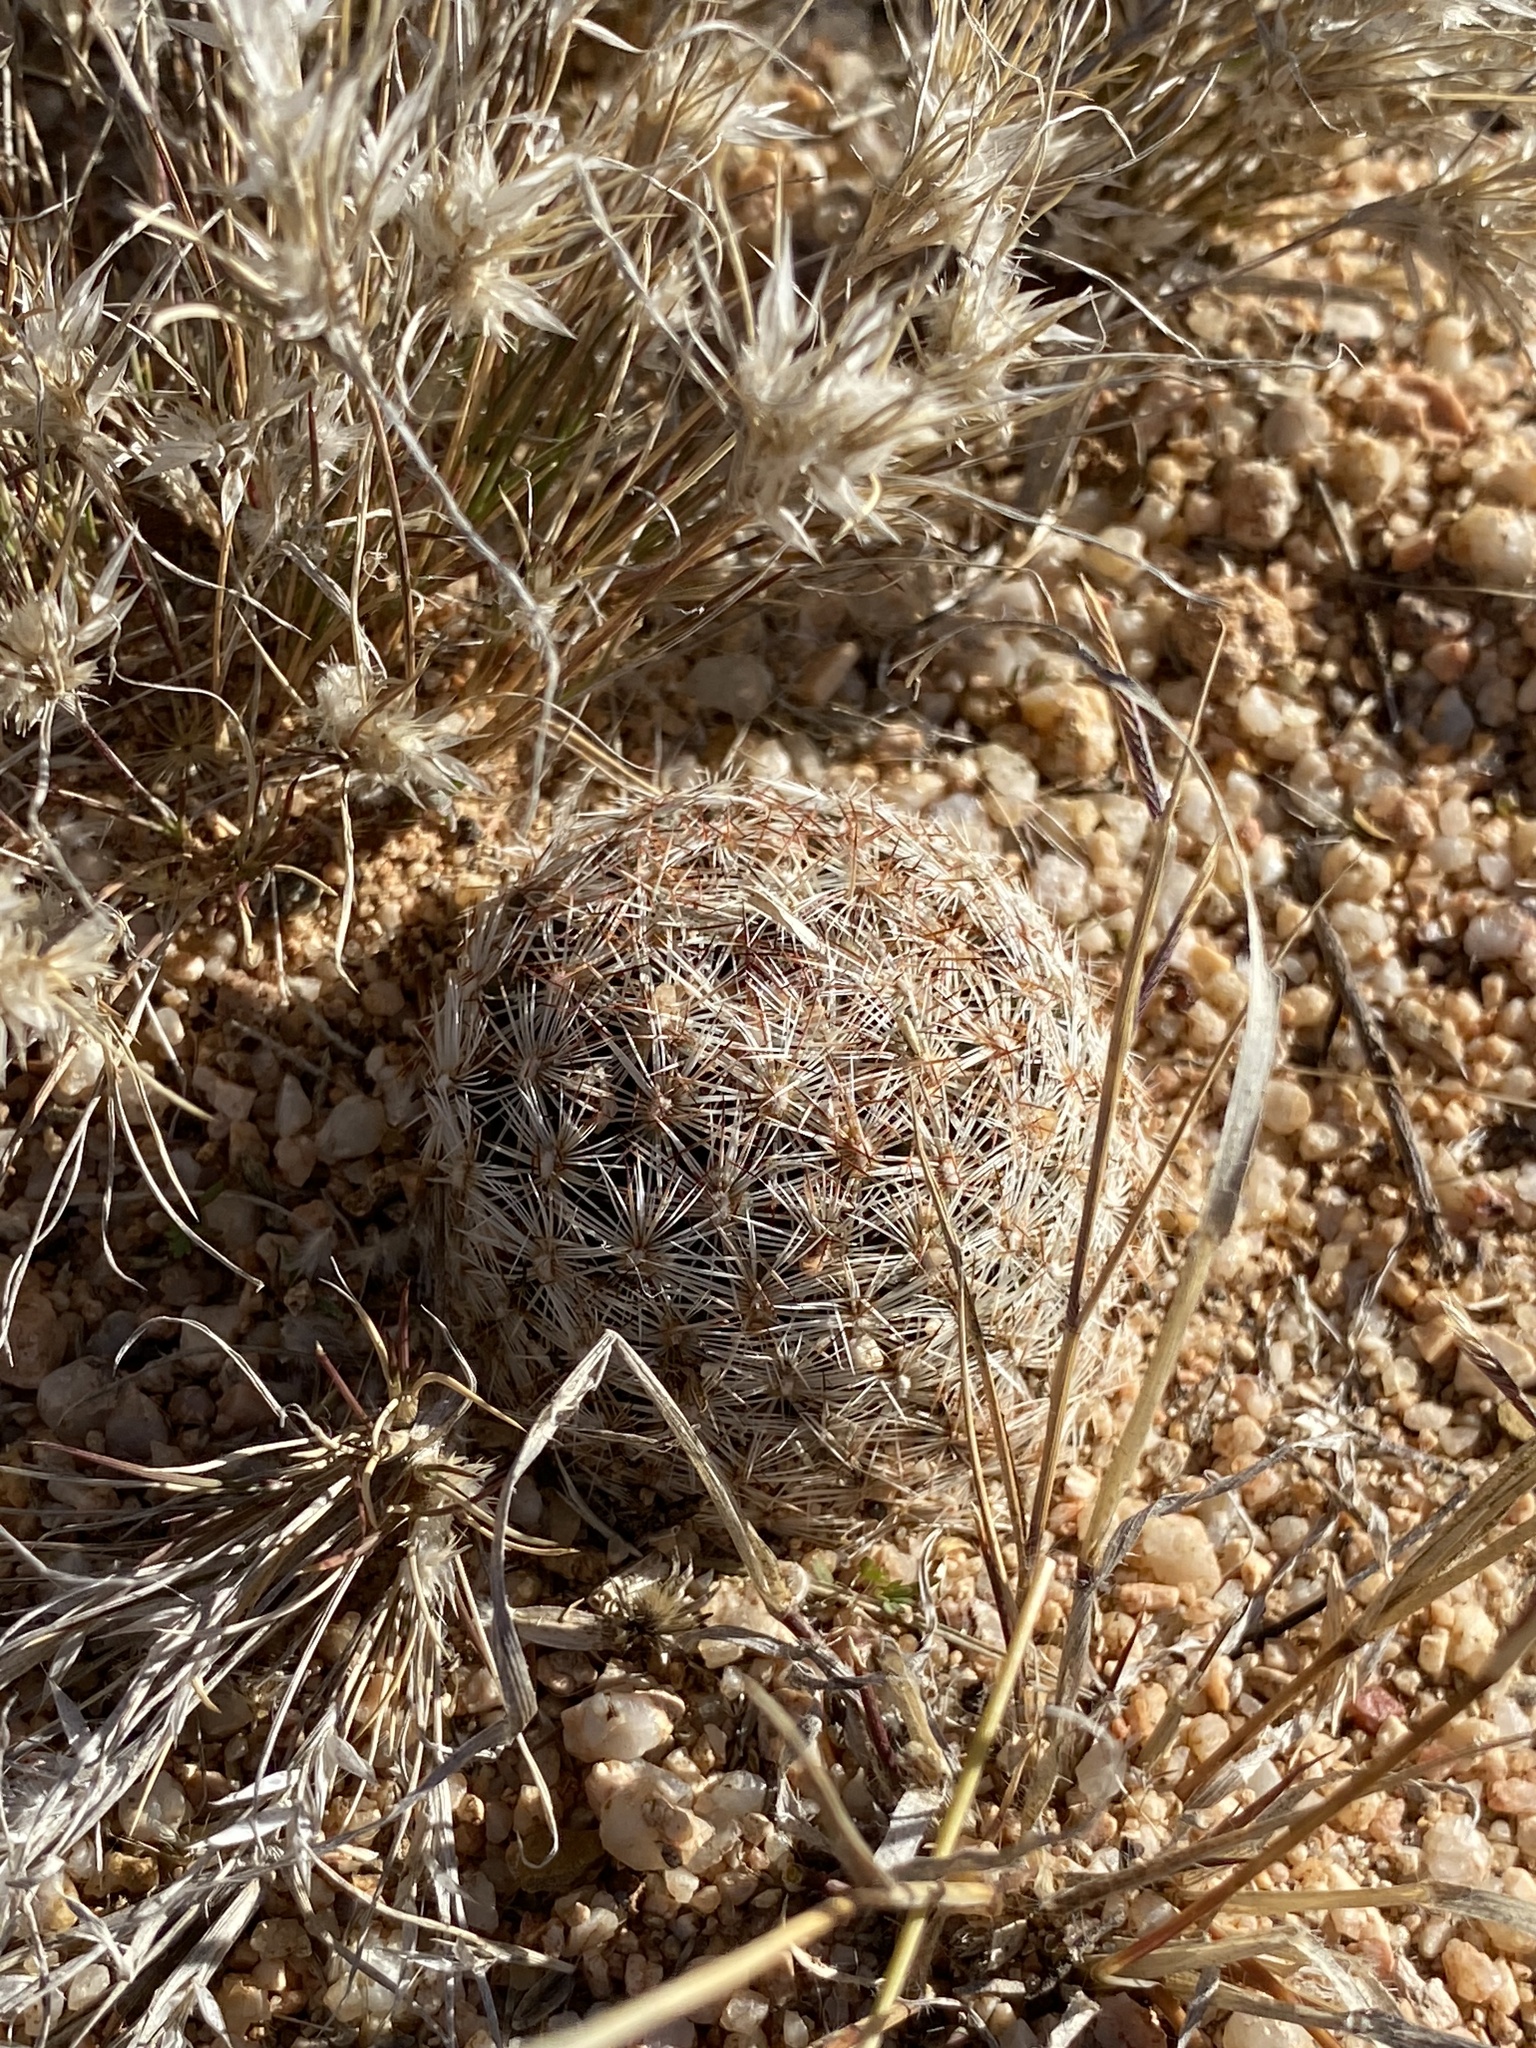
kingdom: Plantae
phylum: Tracheophyta
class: Magnoliopsida
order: Caryophyllales
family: Cactaceae
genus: Pelecyphora
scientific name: Pelecyphora vivipara
